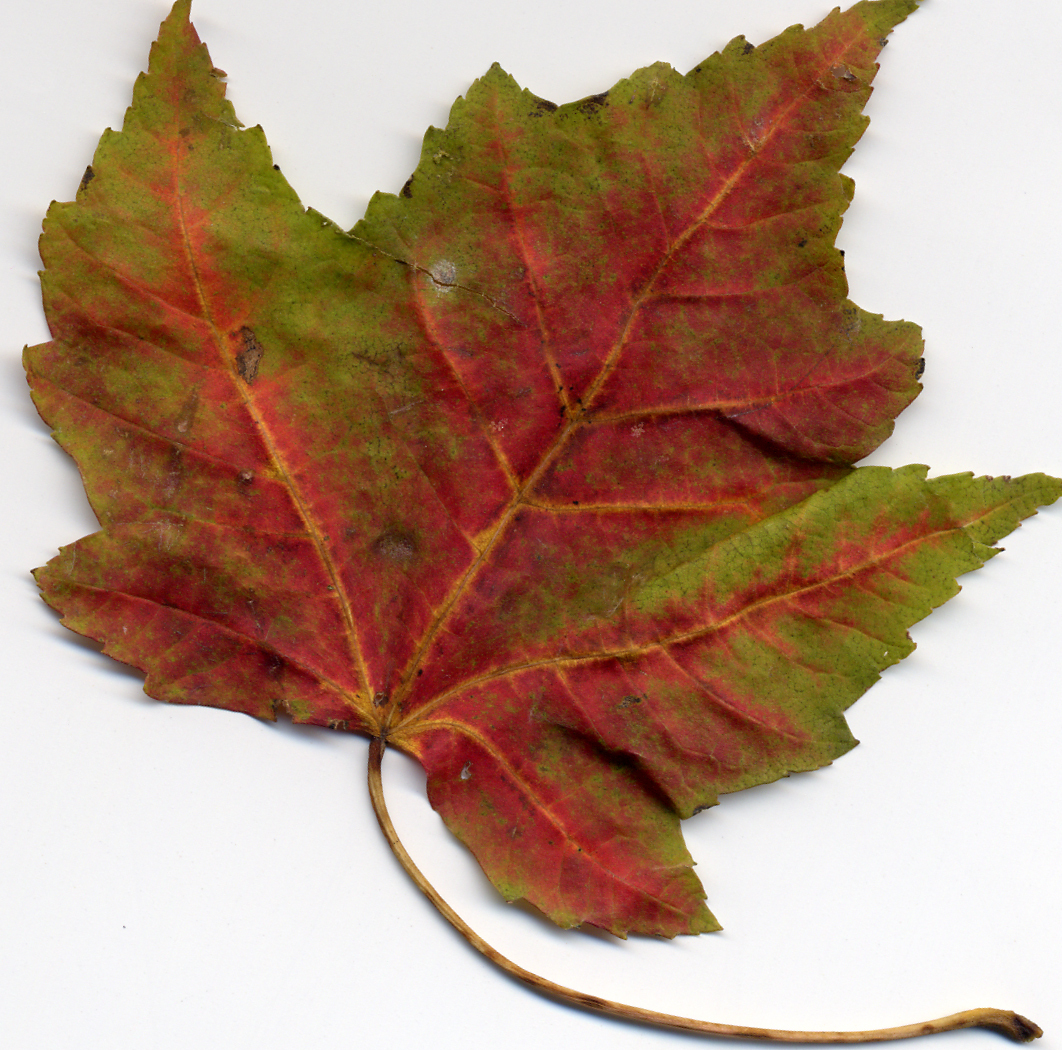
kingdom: Plantae
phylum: Tracheophyta
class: Magnoliopsida
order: Sapindales
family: Sapindaceae
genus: Acer
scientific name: Acer rubrum
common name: Red maple
